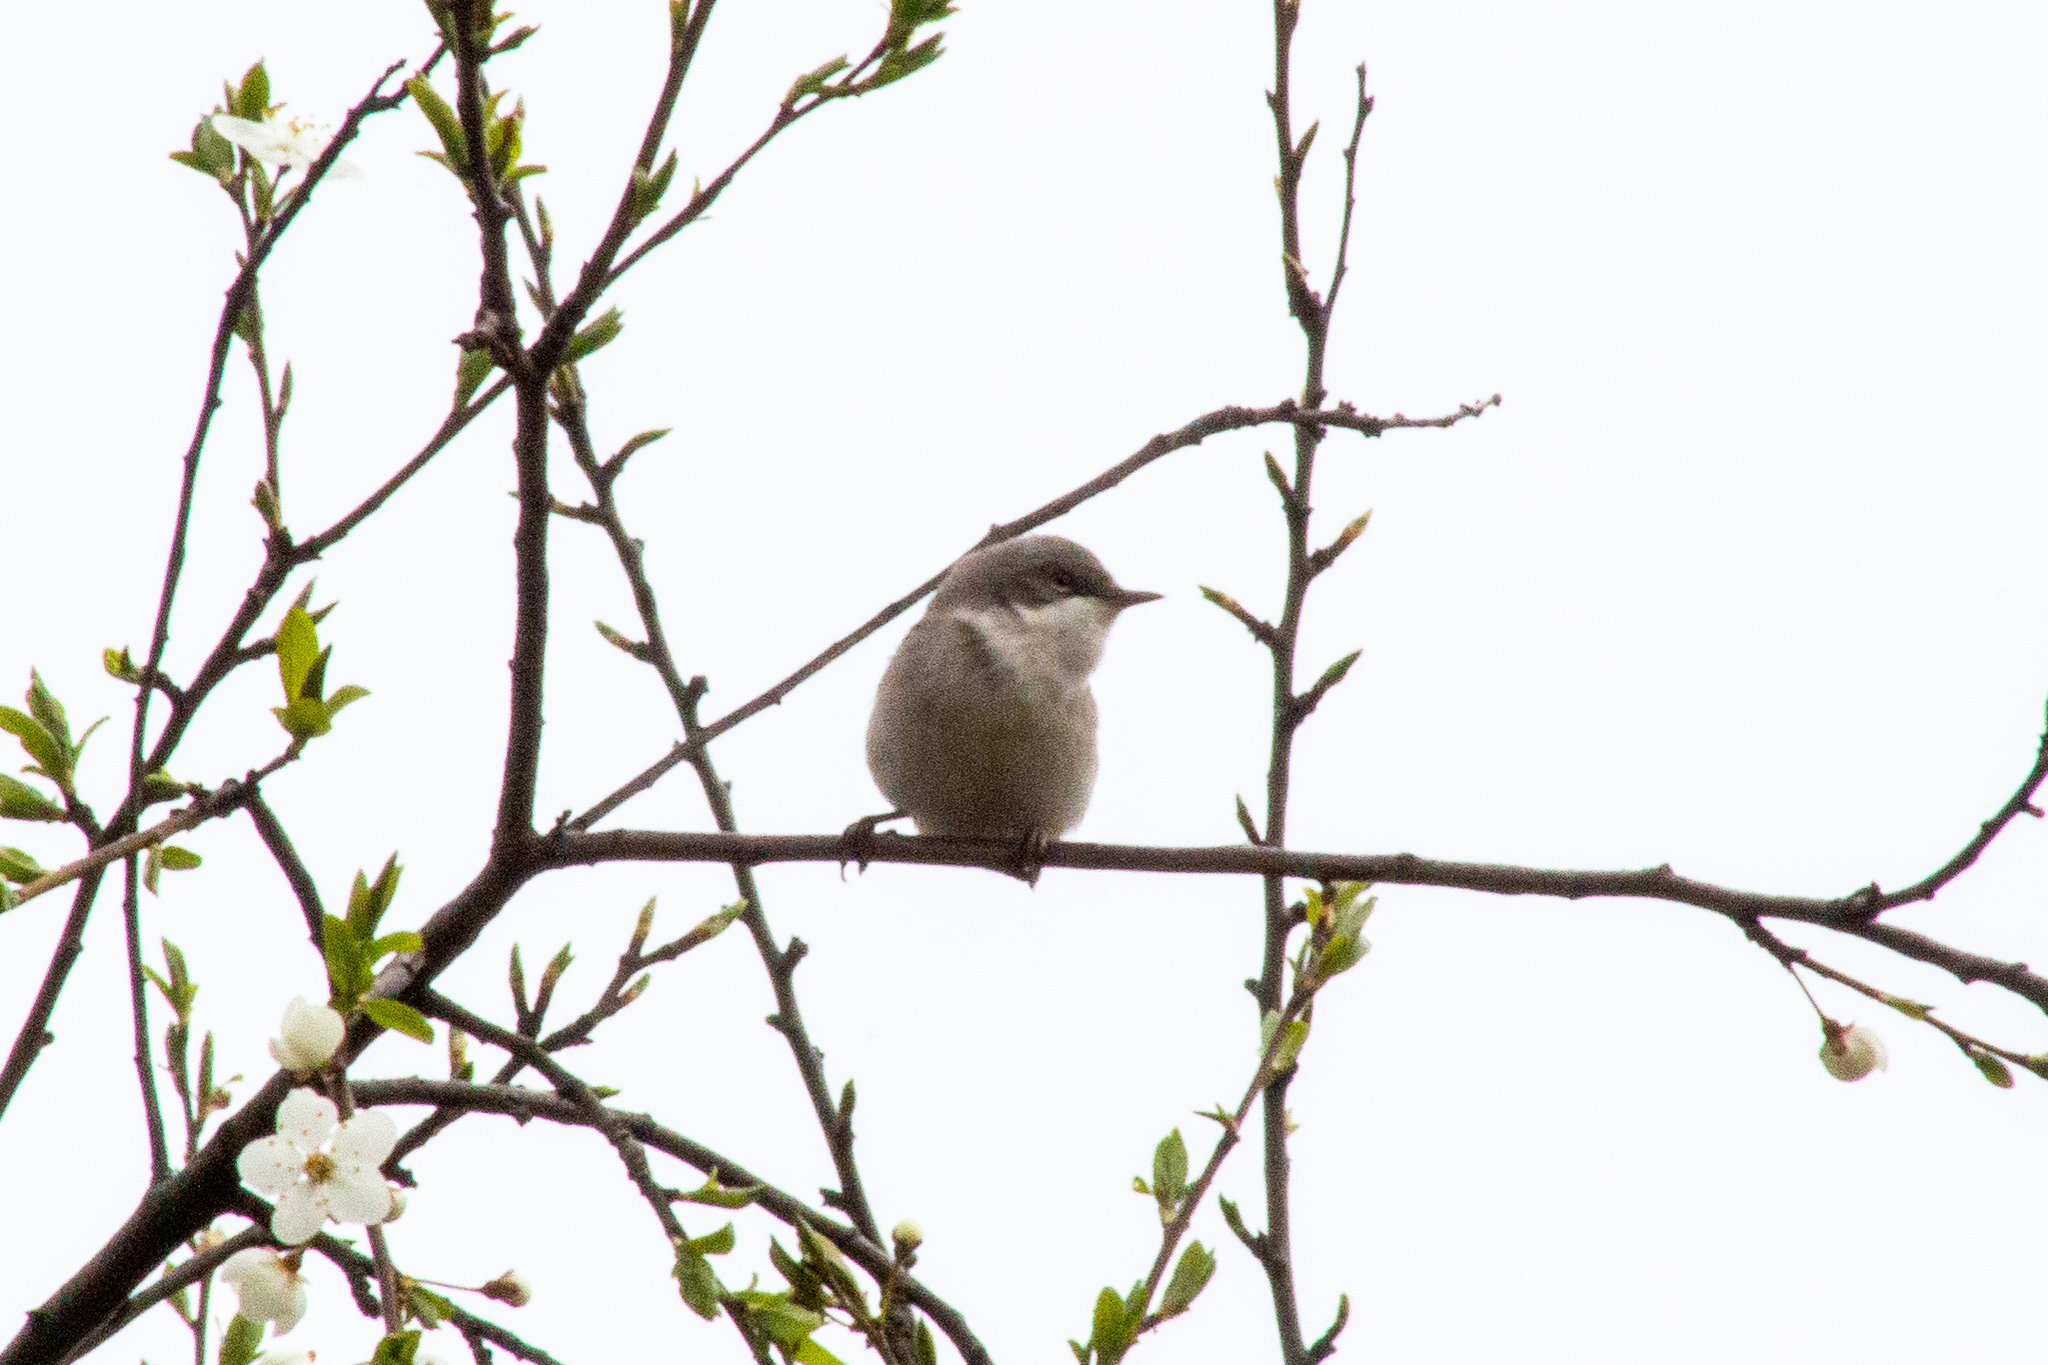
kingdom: Animalia
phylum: Chordata
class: Aves
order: Passeriformes
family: Sylviidae
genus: Sylvia
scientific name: Sylvia curruca
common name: Lesser whitethroat
